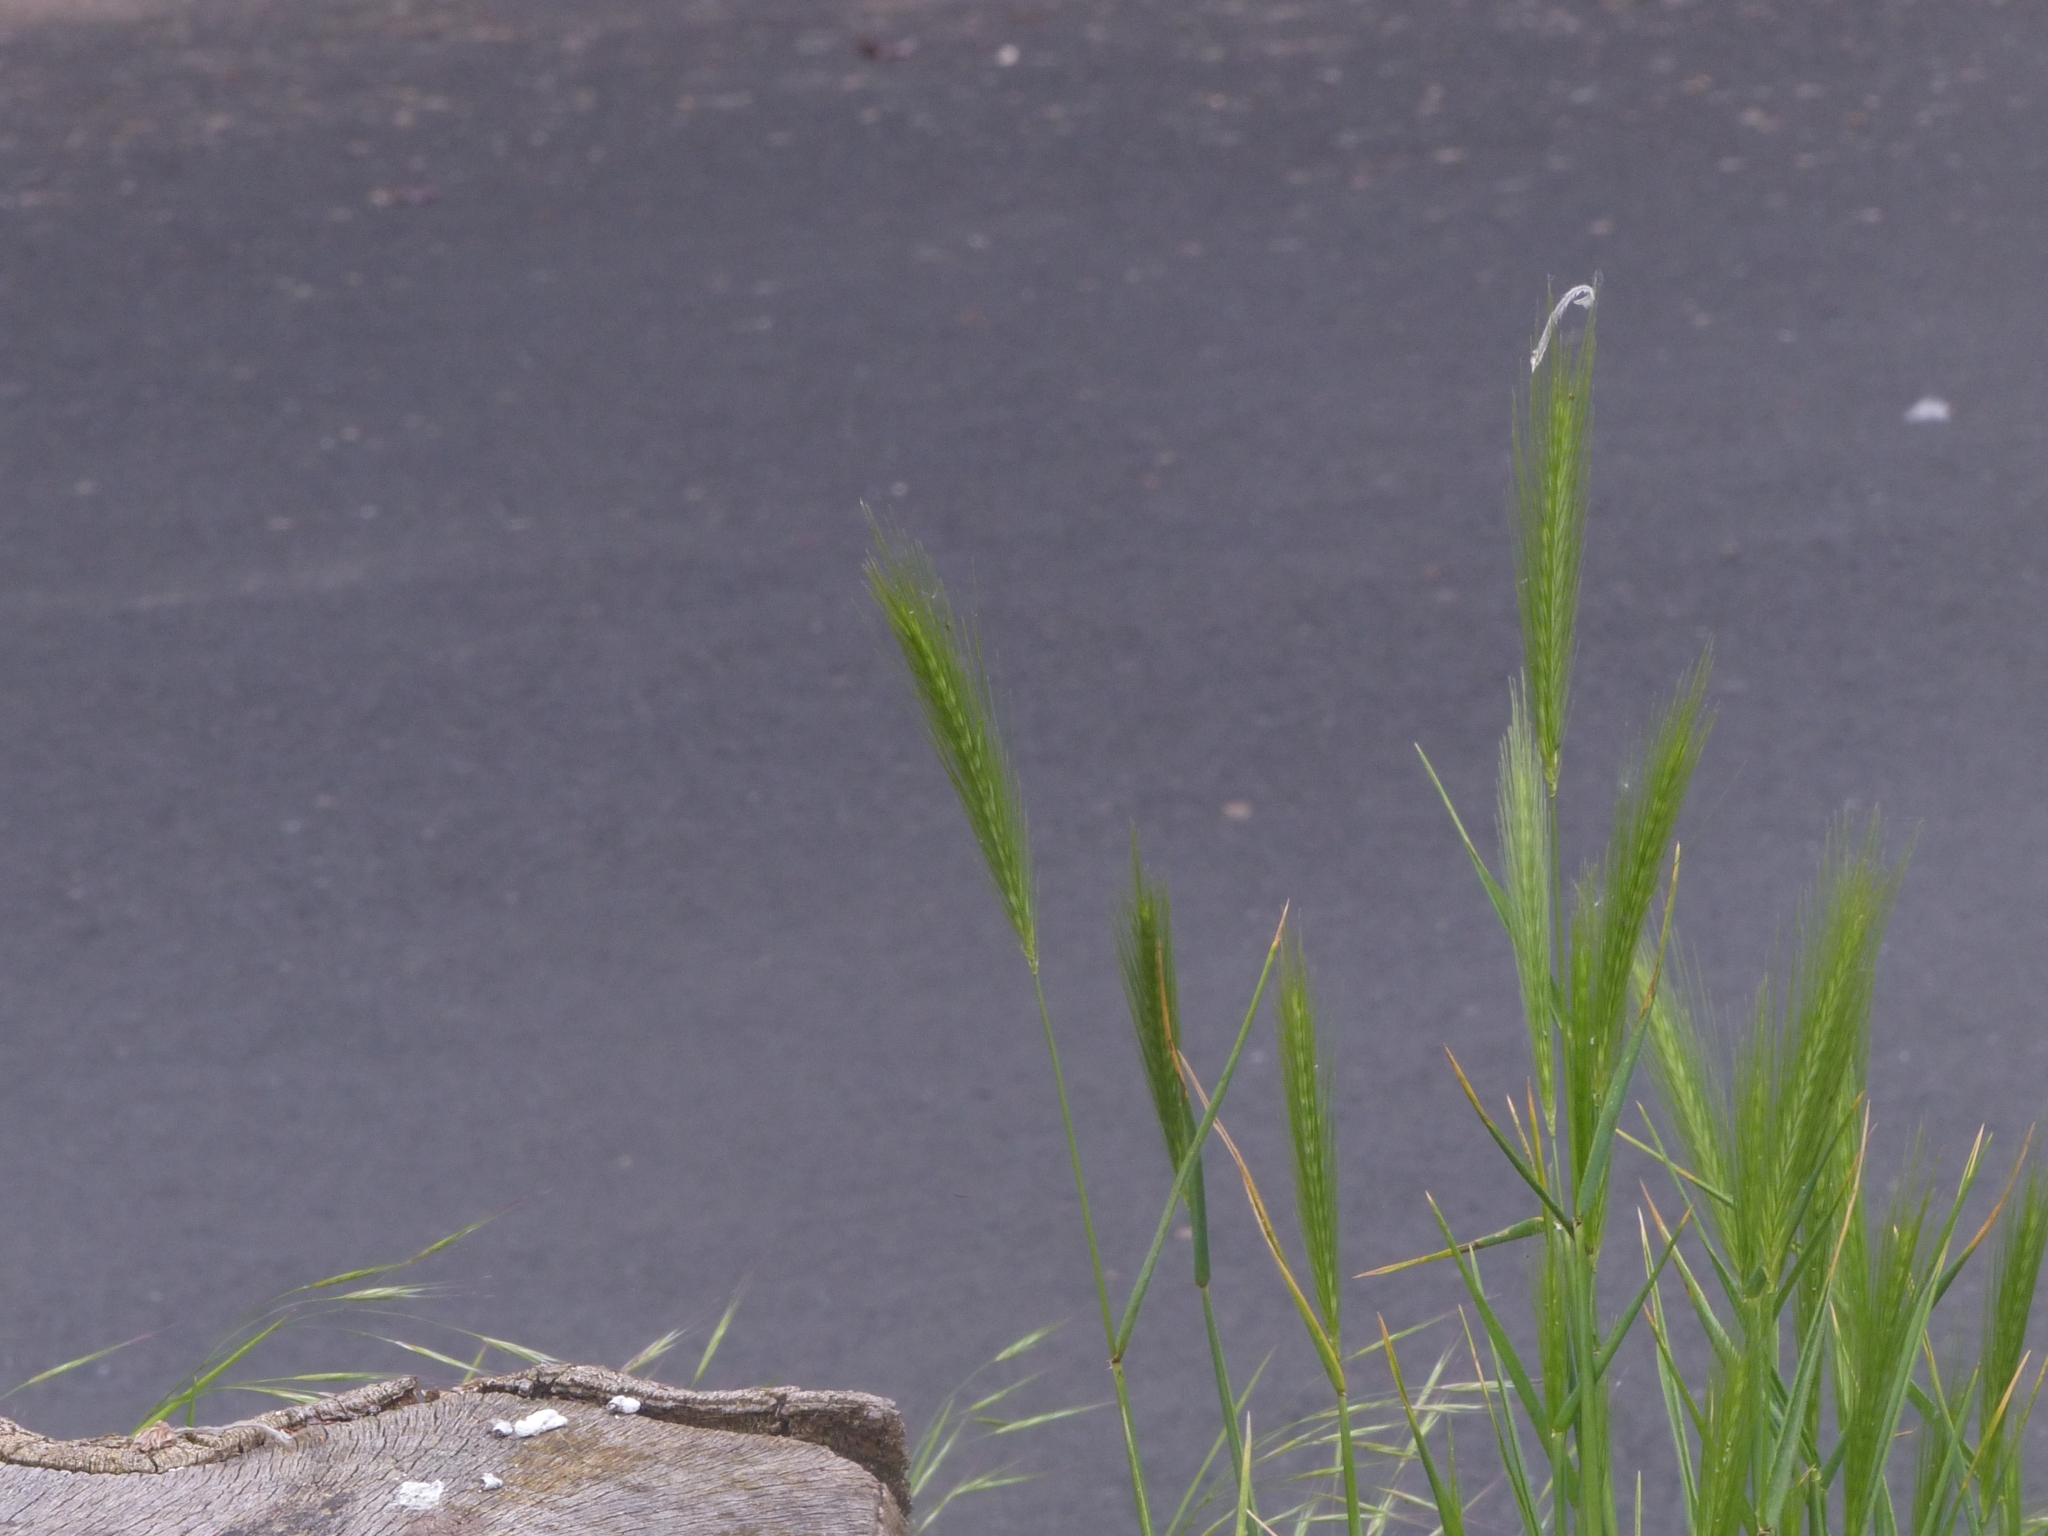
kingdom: Plantae
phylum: Tracheophyta
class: Liliopsida
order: Poales
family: Poaceae
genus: Hordeum
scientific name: Hordeum murinum
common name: Wall barley
